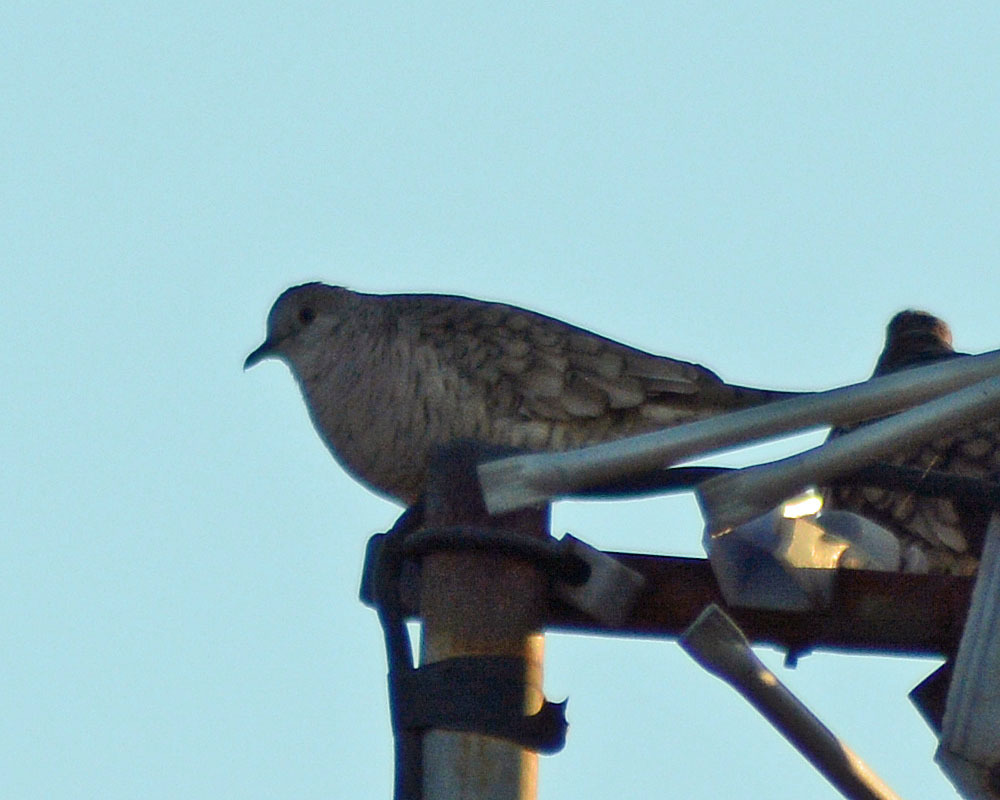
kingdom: Animalia
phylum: Chordata
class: Aves
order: Columbiformes
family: Columbidae
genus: Columbina
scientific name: Columbina inca
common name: Inca dove
